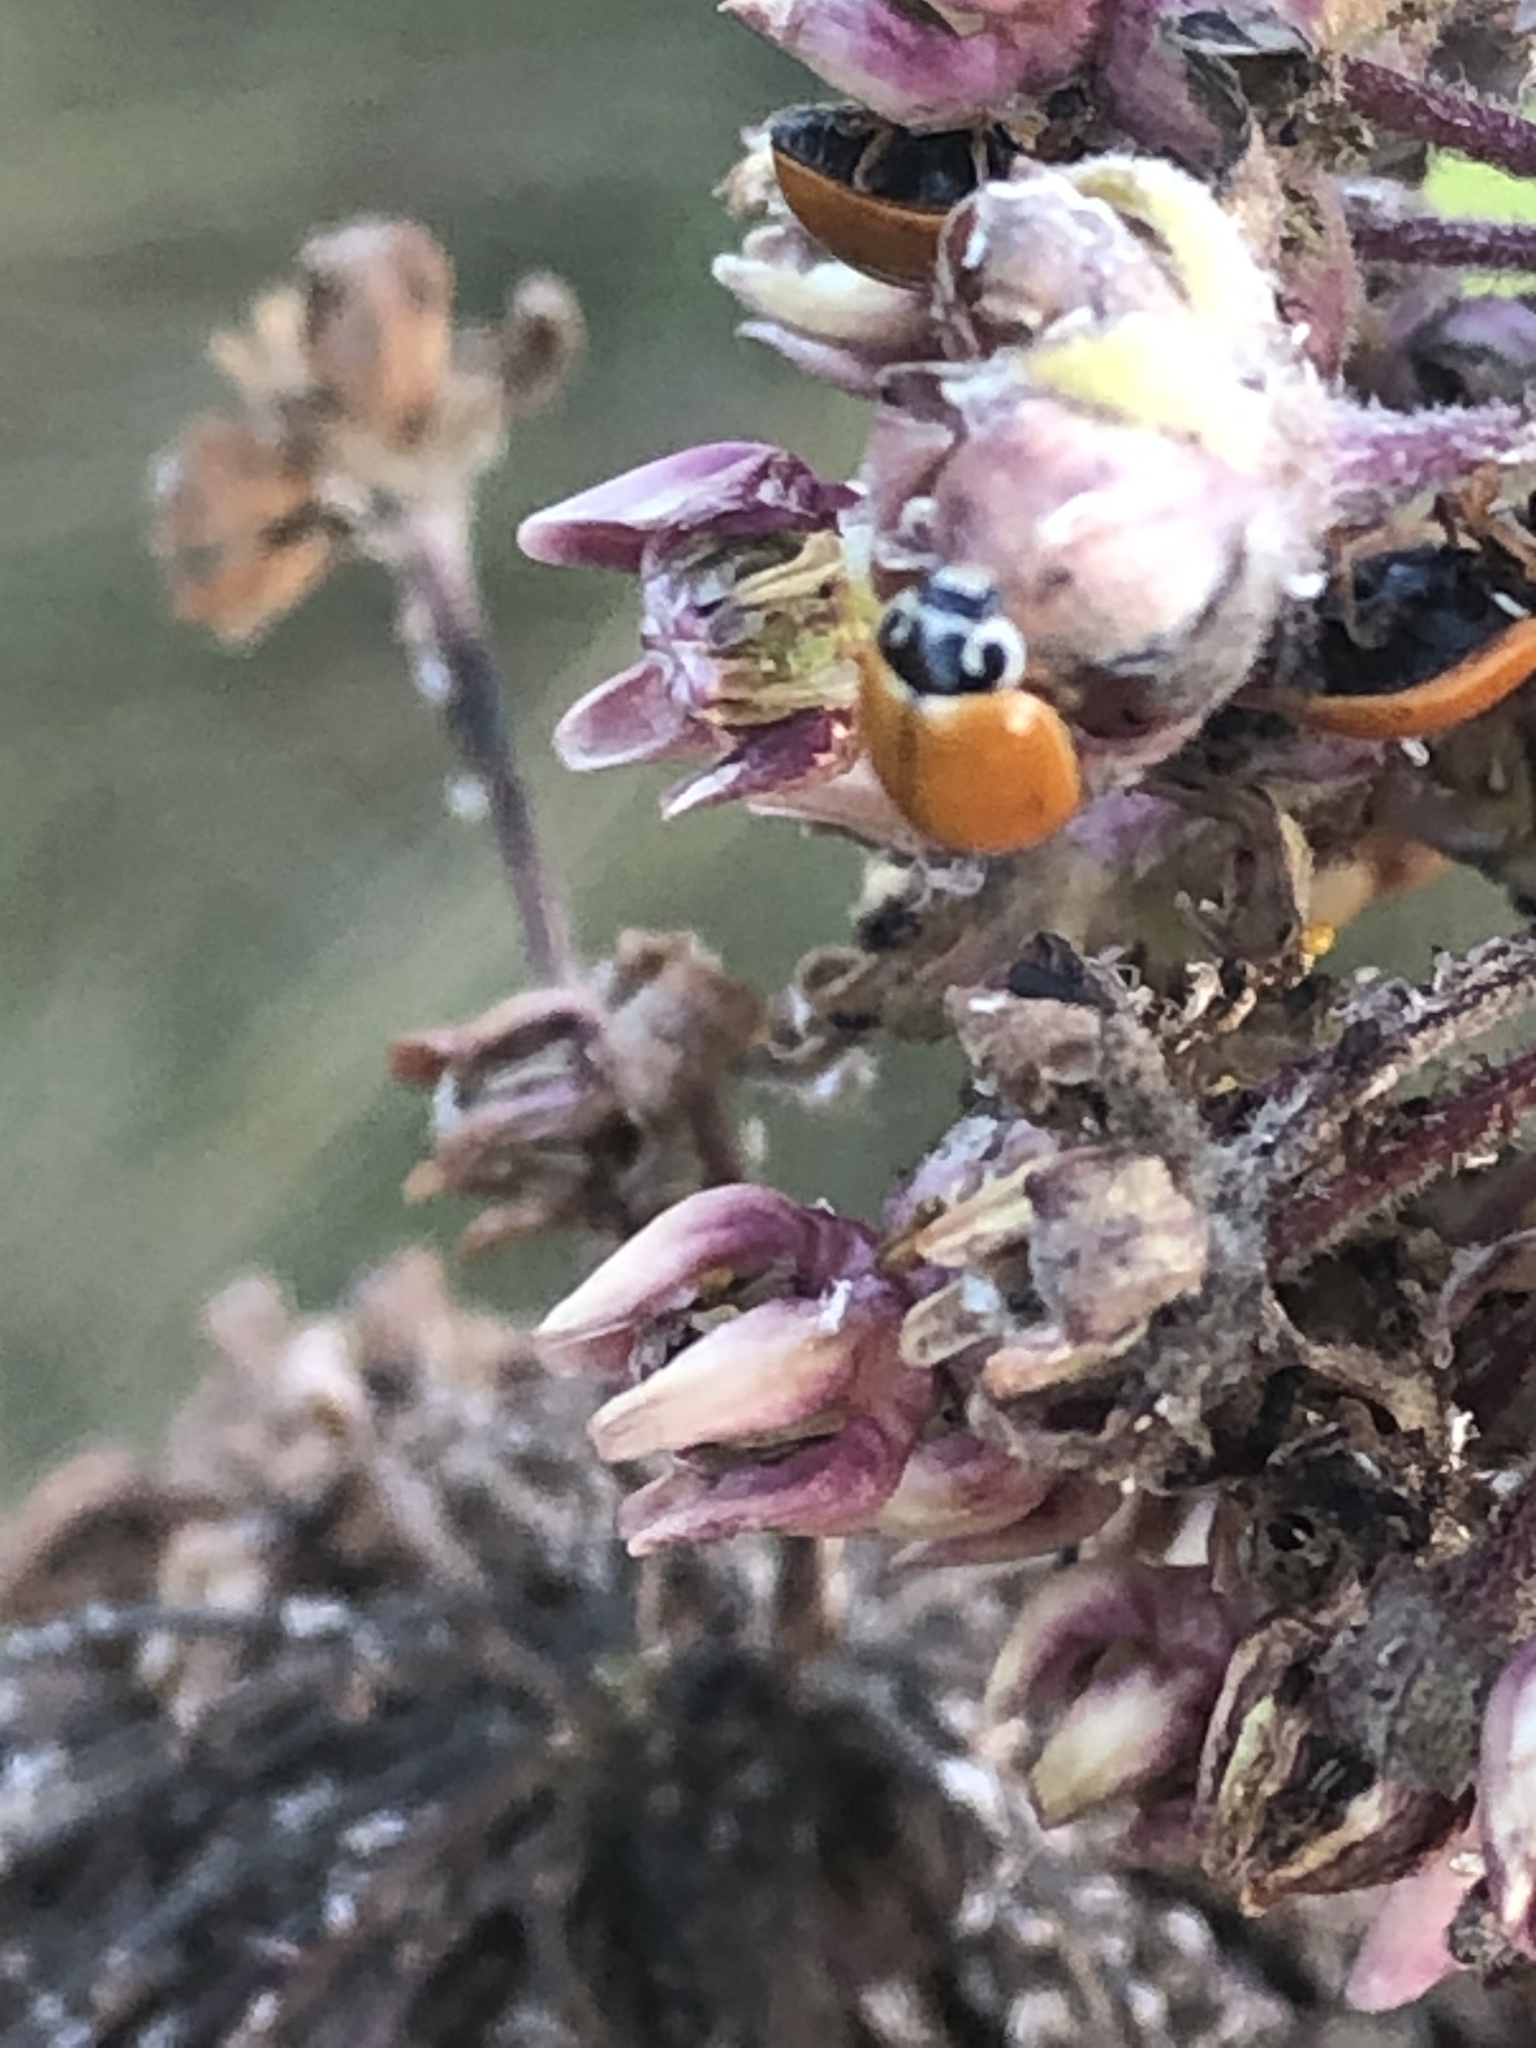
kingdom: Animalia
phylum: Arthropoda
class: Insecta
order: Coleoptera
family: Coccinellidae
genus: Cycloneda
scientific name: Cycloneda munda
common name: Polished lady beetle
